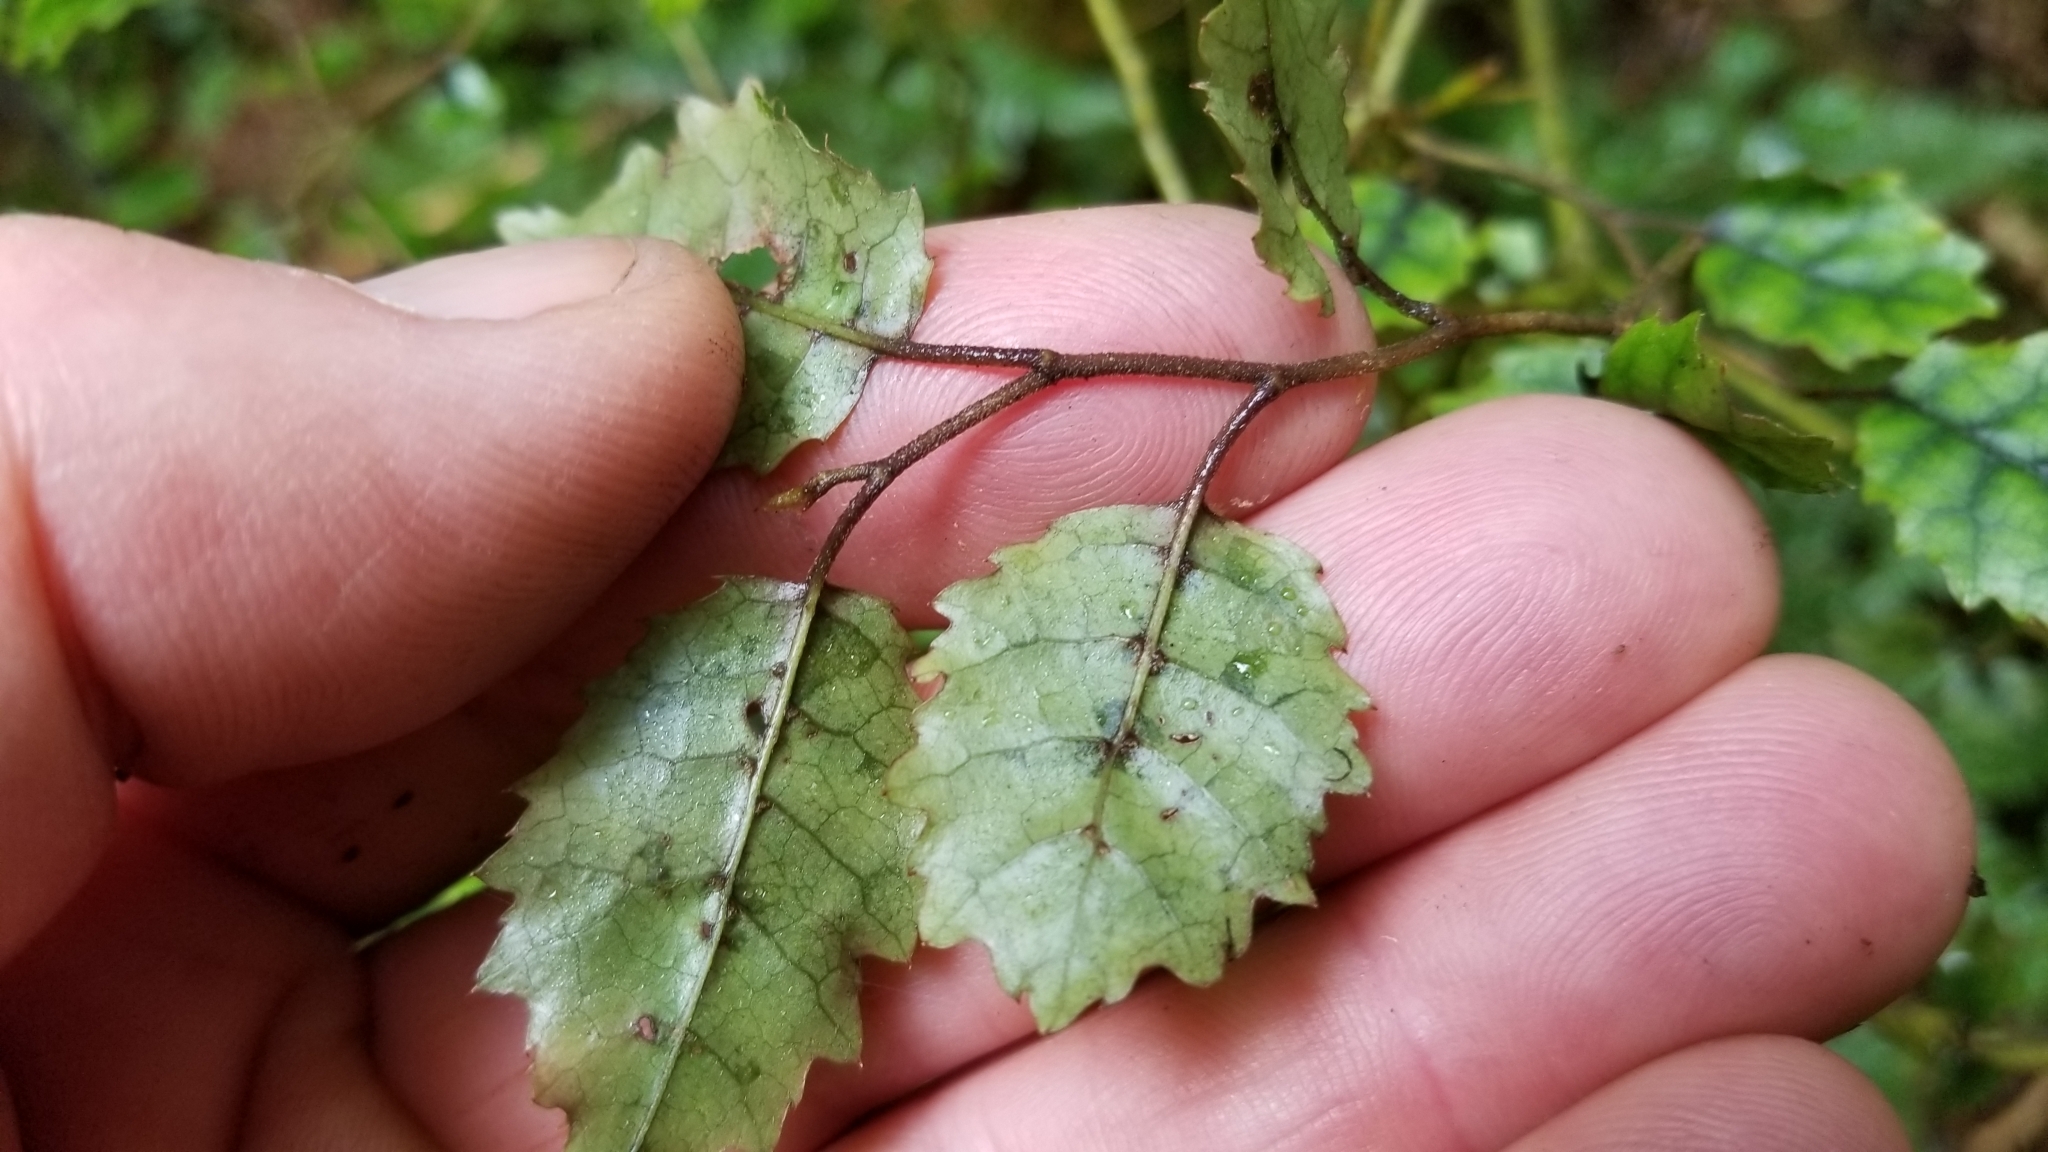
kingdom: Plantae
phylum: Tracheophyta
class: Magnoliopsida
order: Asterales
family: Rousseaceae
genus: Carpodetus
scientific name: Carpodetus serratus
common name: White mapau
